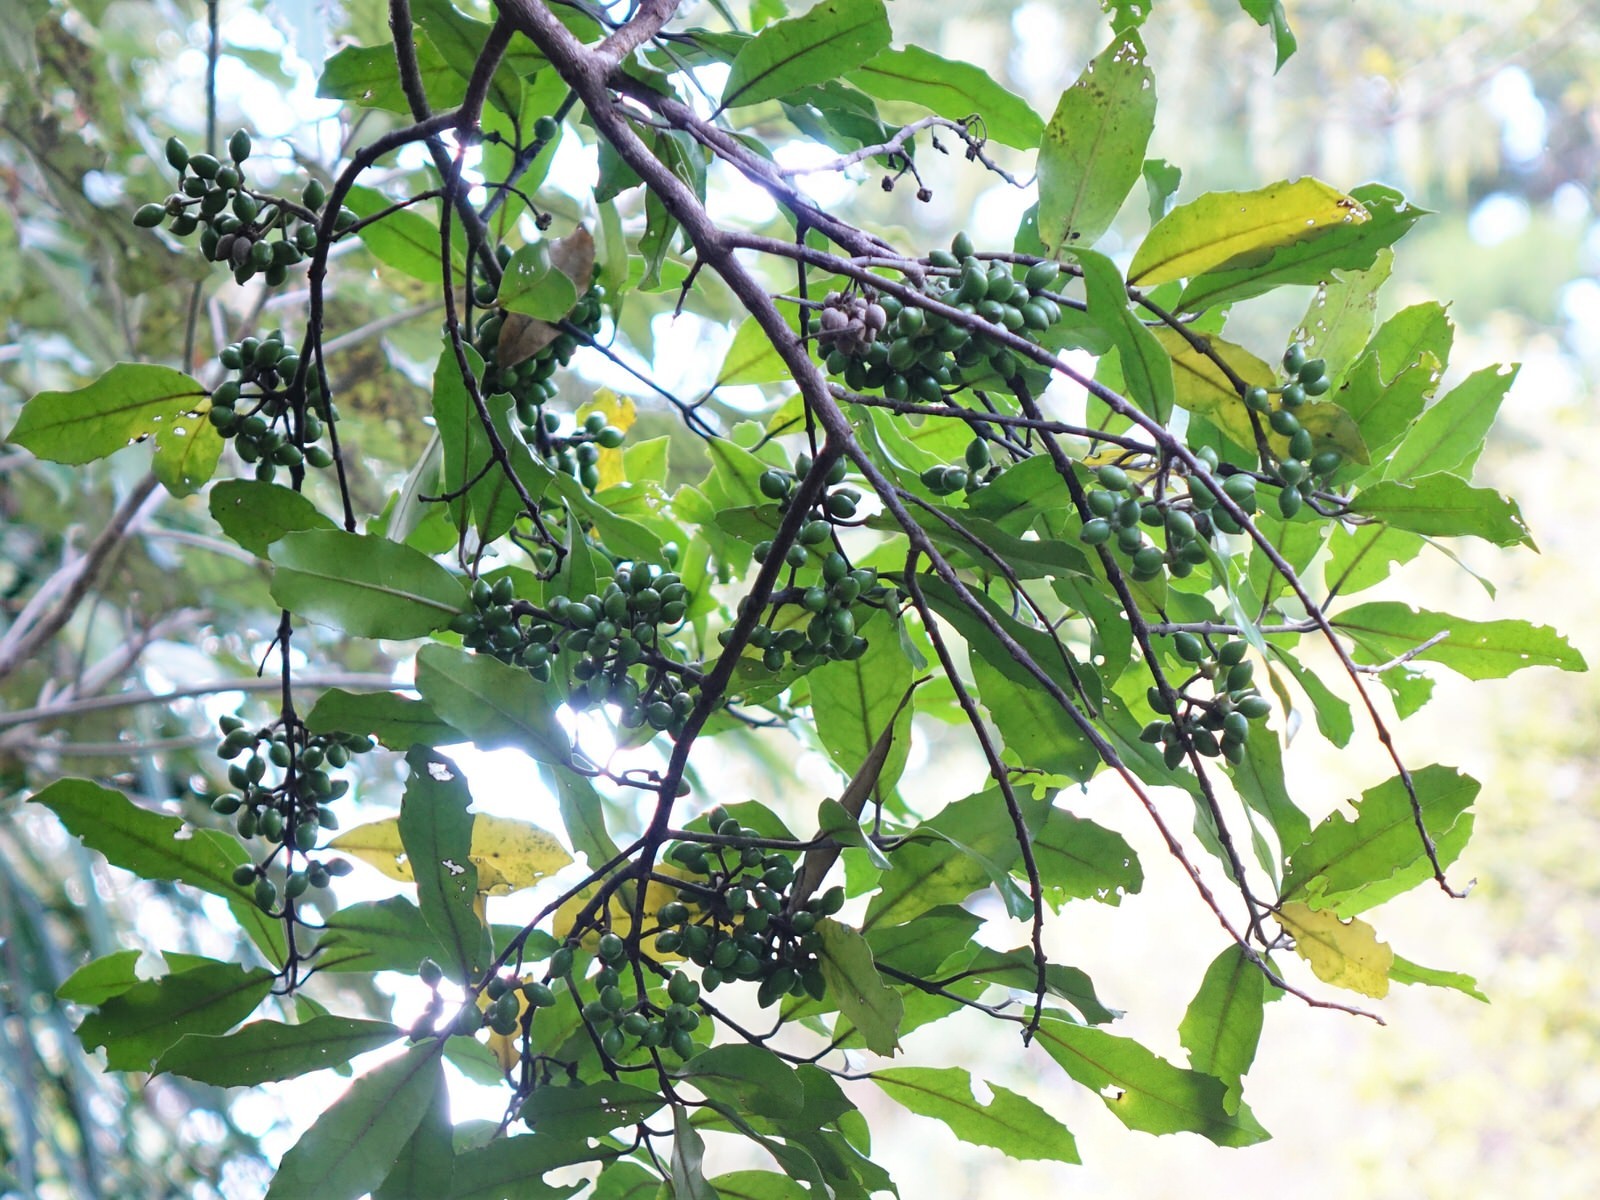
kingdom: Plantae
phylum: Tracheophyta
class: Magnoliopsida
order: Laurales
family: Monimiaceae
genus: Hedycarya
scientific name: Hedycarya arborea
